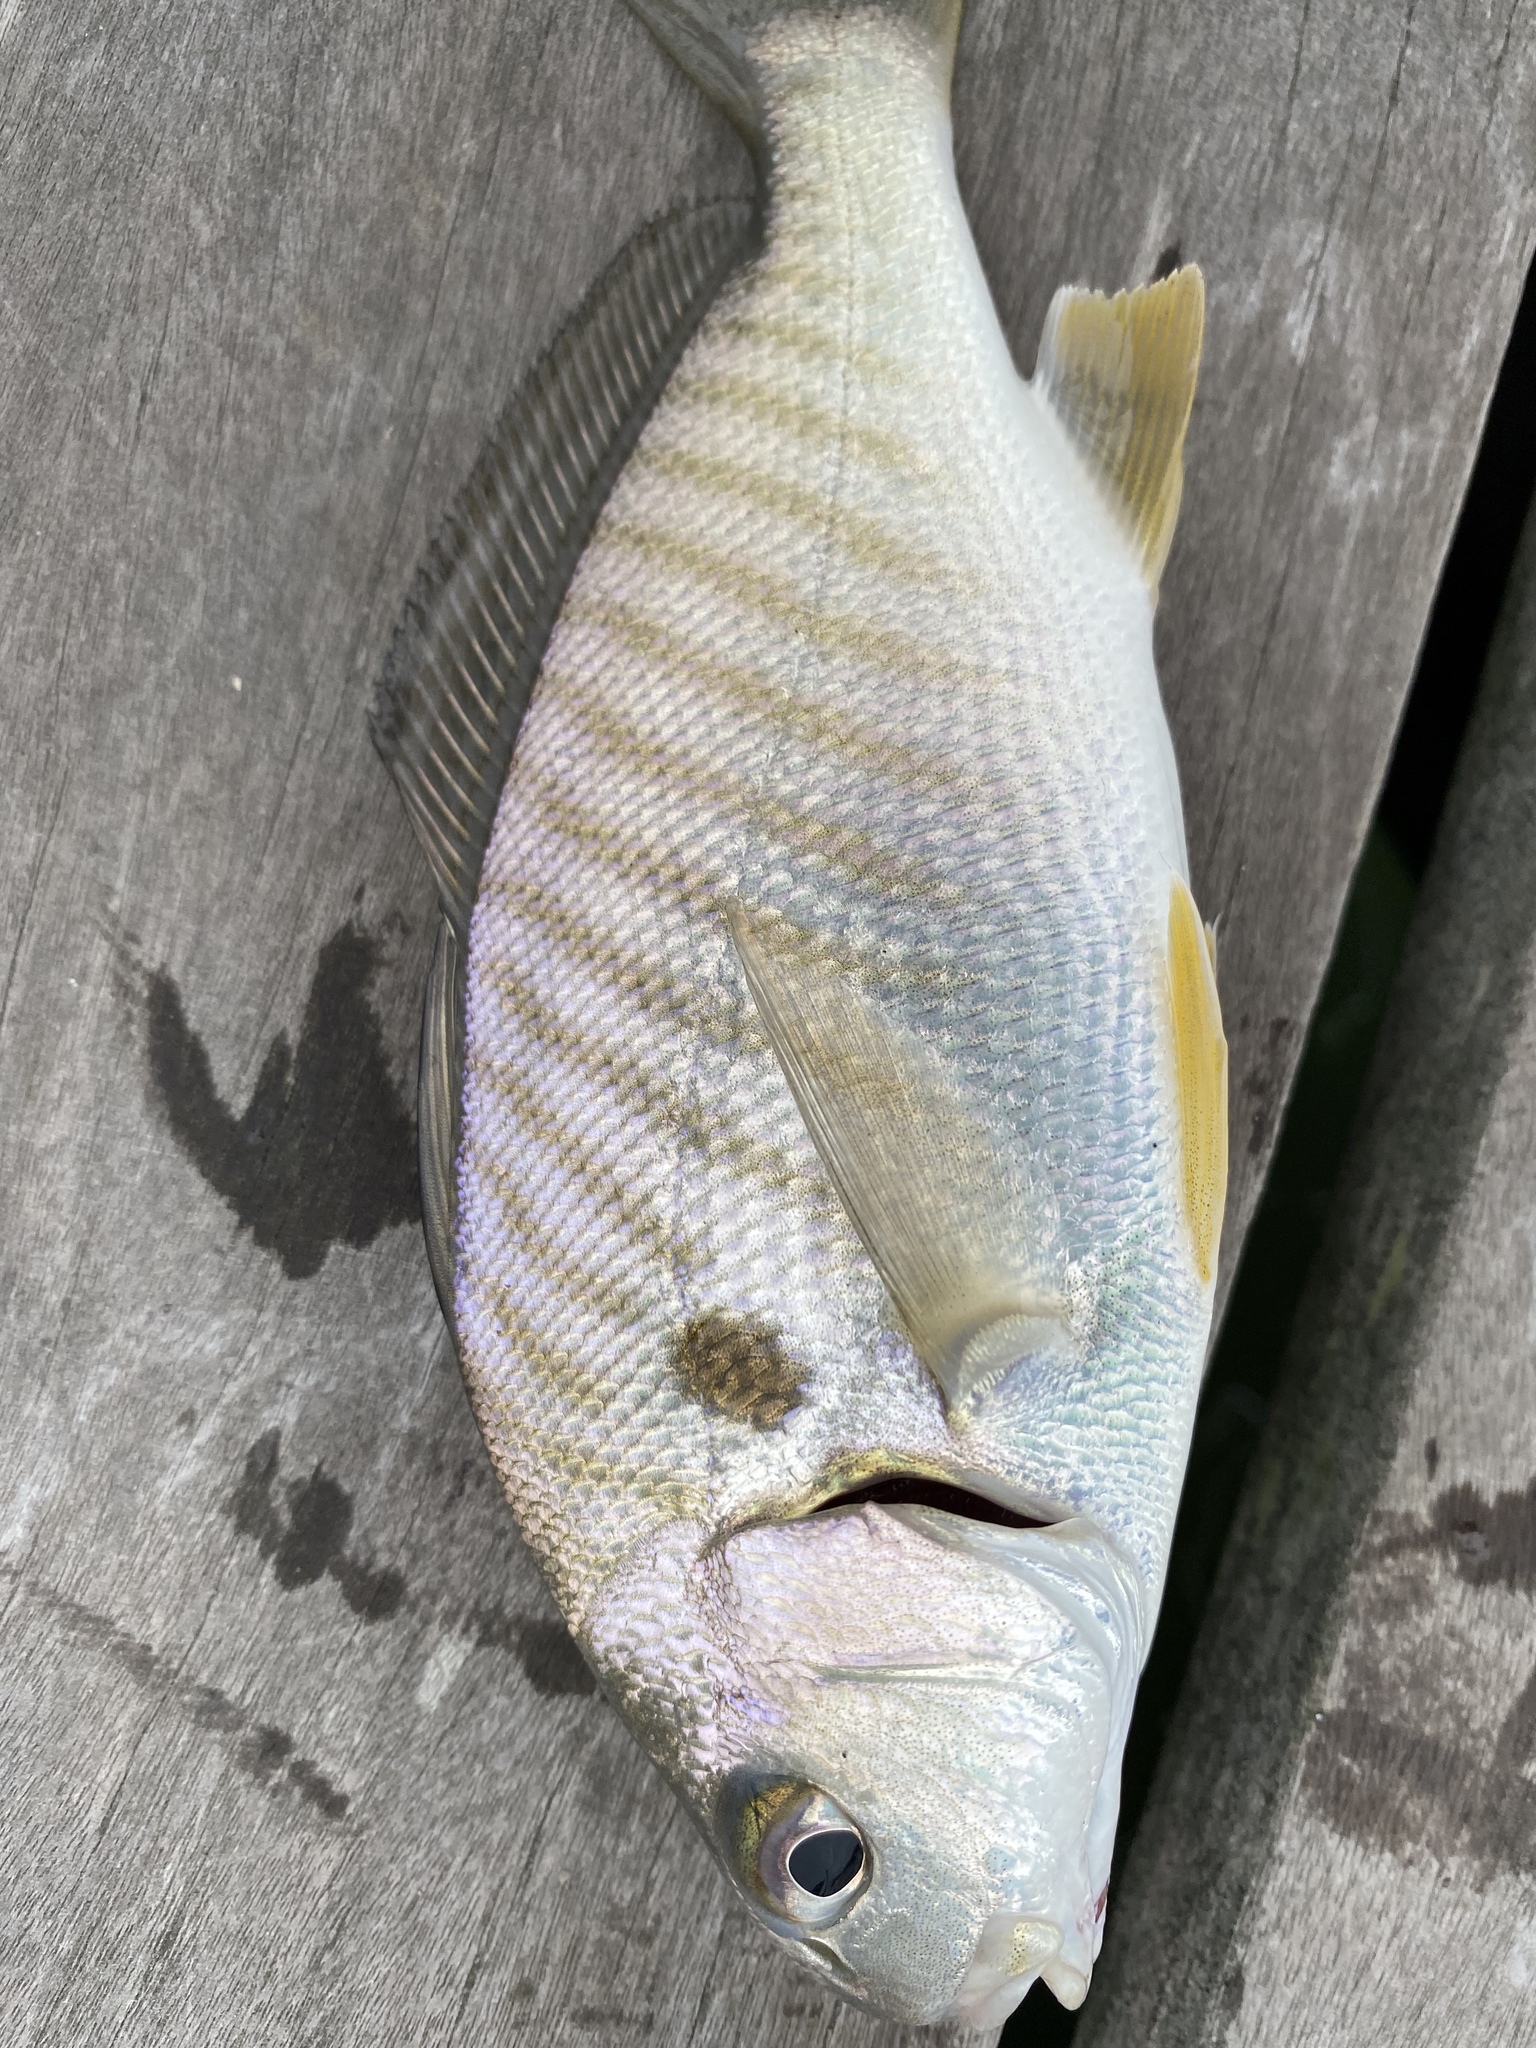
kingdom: Animalia
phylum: Chordata
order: Perciformes
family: Sciaenidae
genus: Leiostomus
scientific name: Leiostomus xanthurus
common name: Spot
